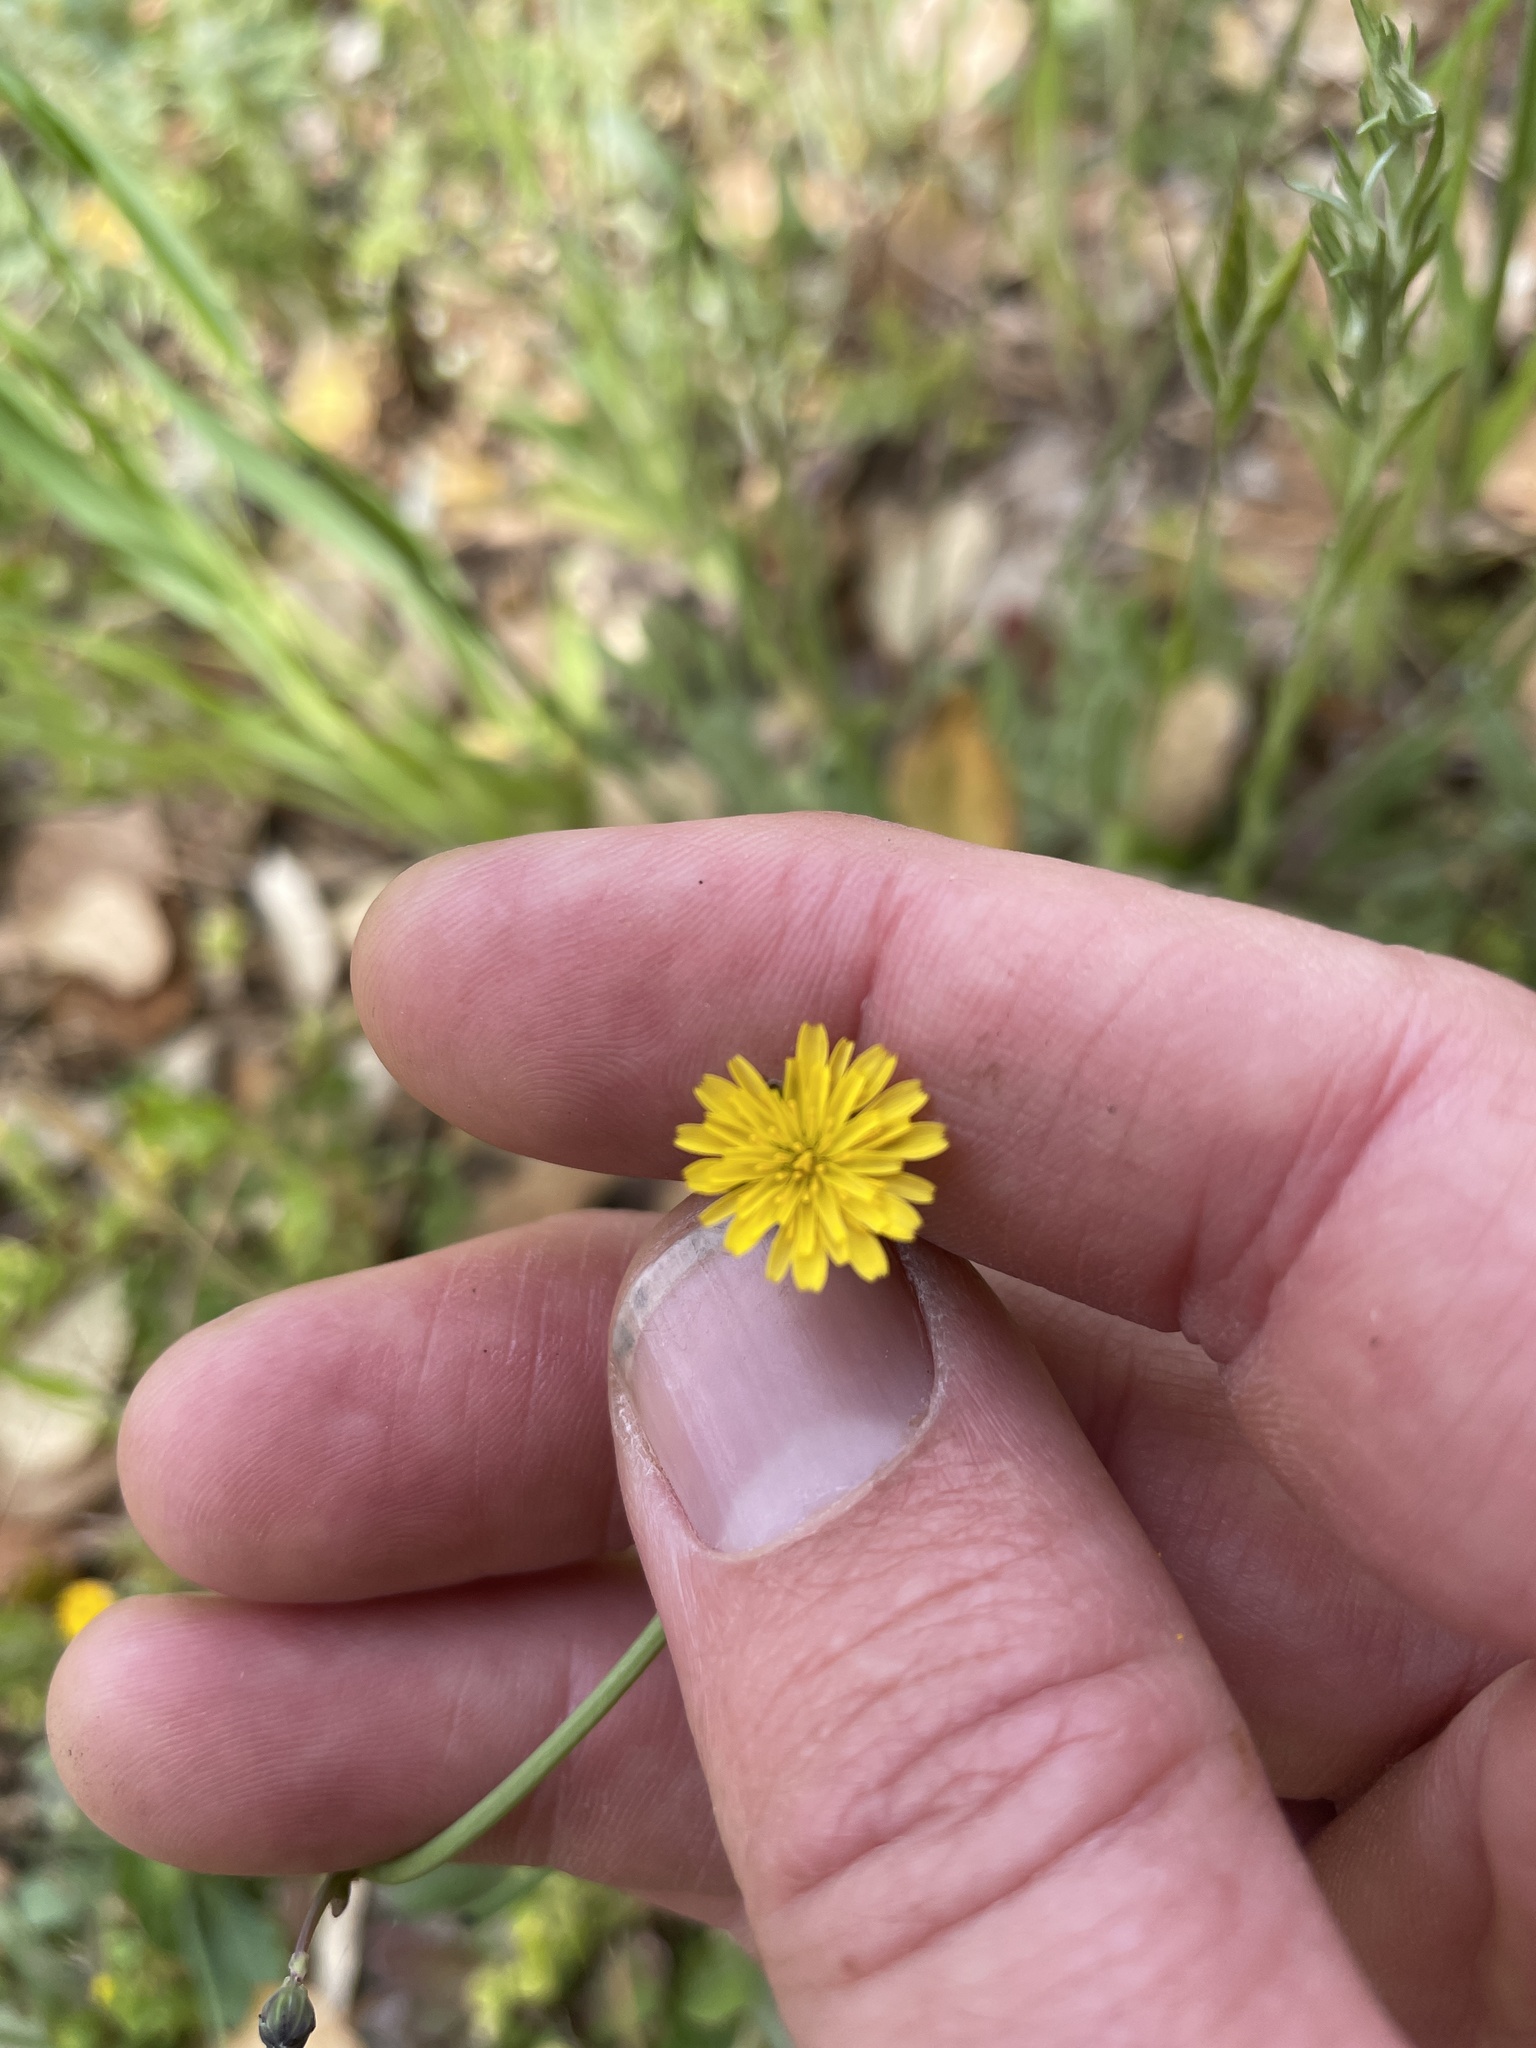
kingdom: Plantae
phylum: Tracheophyta
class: Magnoliopsida
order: Asterales
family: Asteraceae
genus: Hypochaeris
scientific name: Hypochaeris glabra
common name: Smooth catsear
